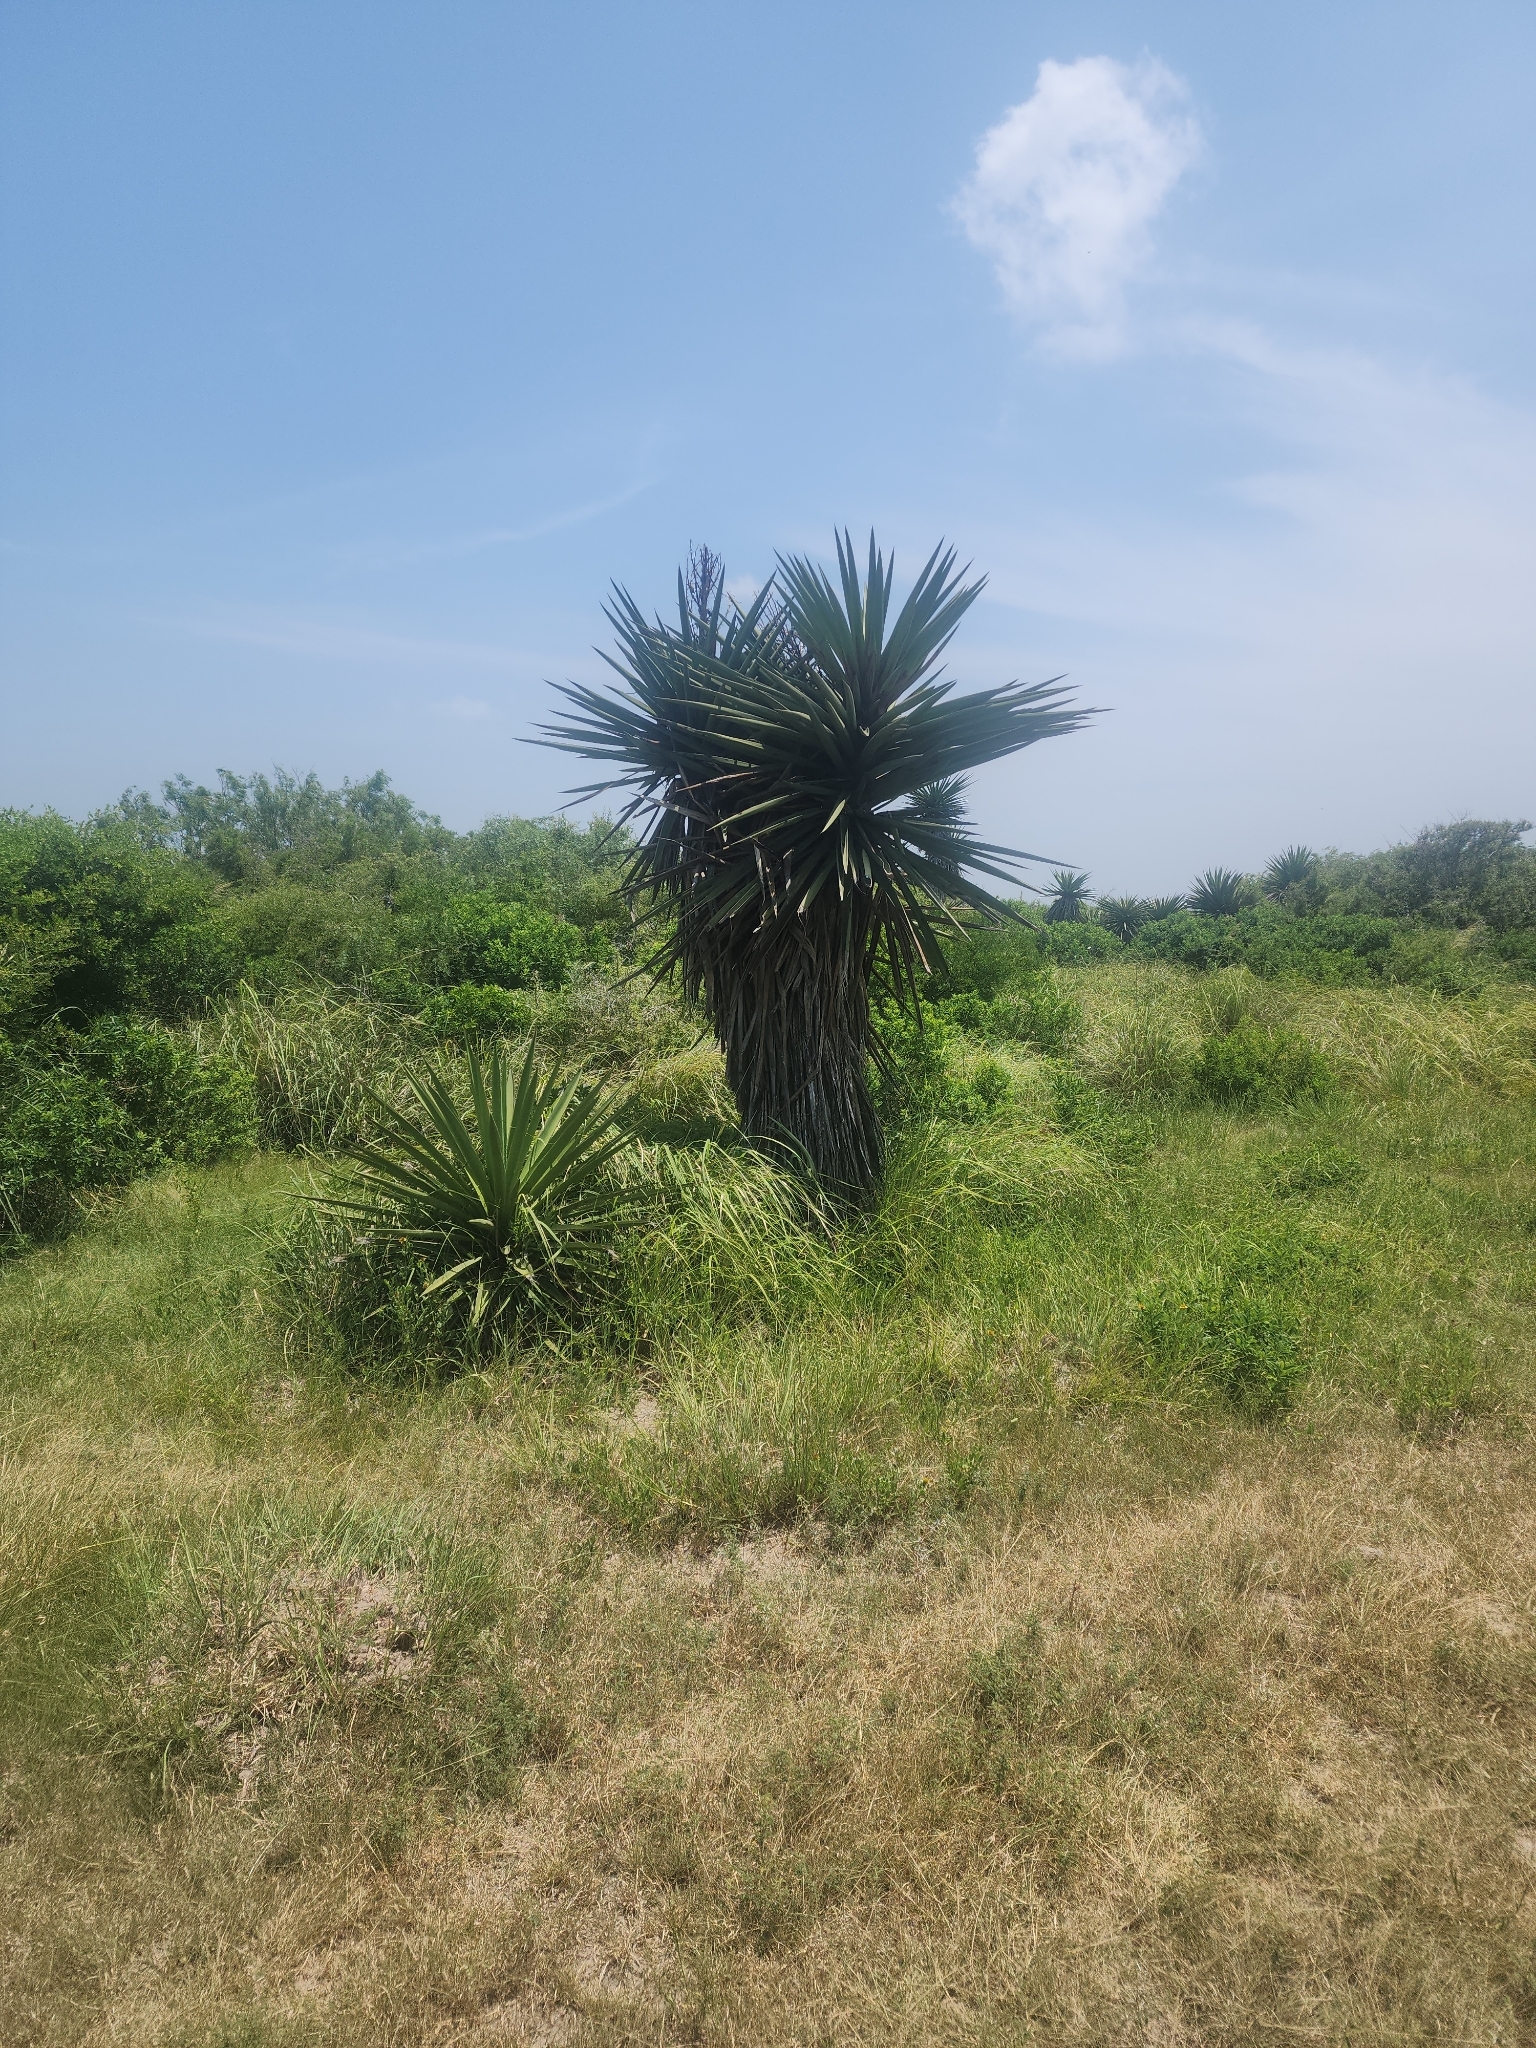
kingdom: Plantae
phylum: Tracheophyta
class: Liliopsida
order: Asparagales
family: Asparagaceae
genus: Yucca
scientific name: Yucca treculiana
